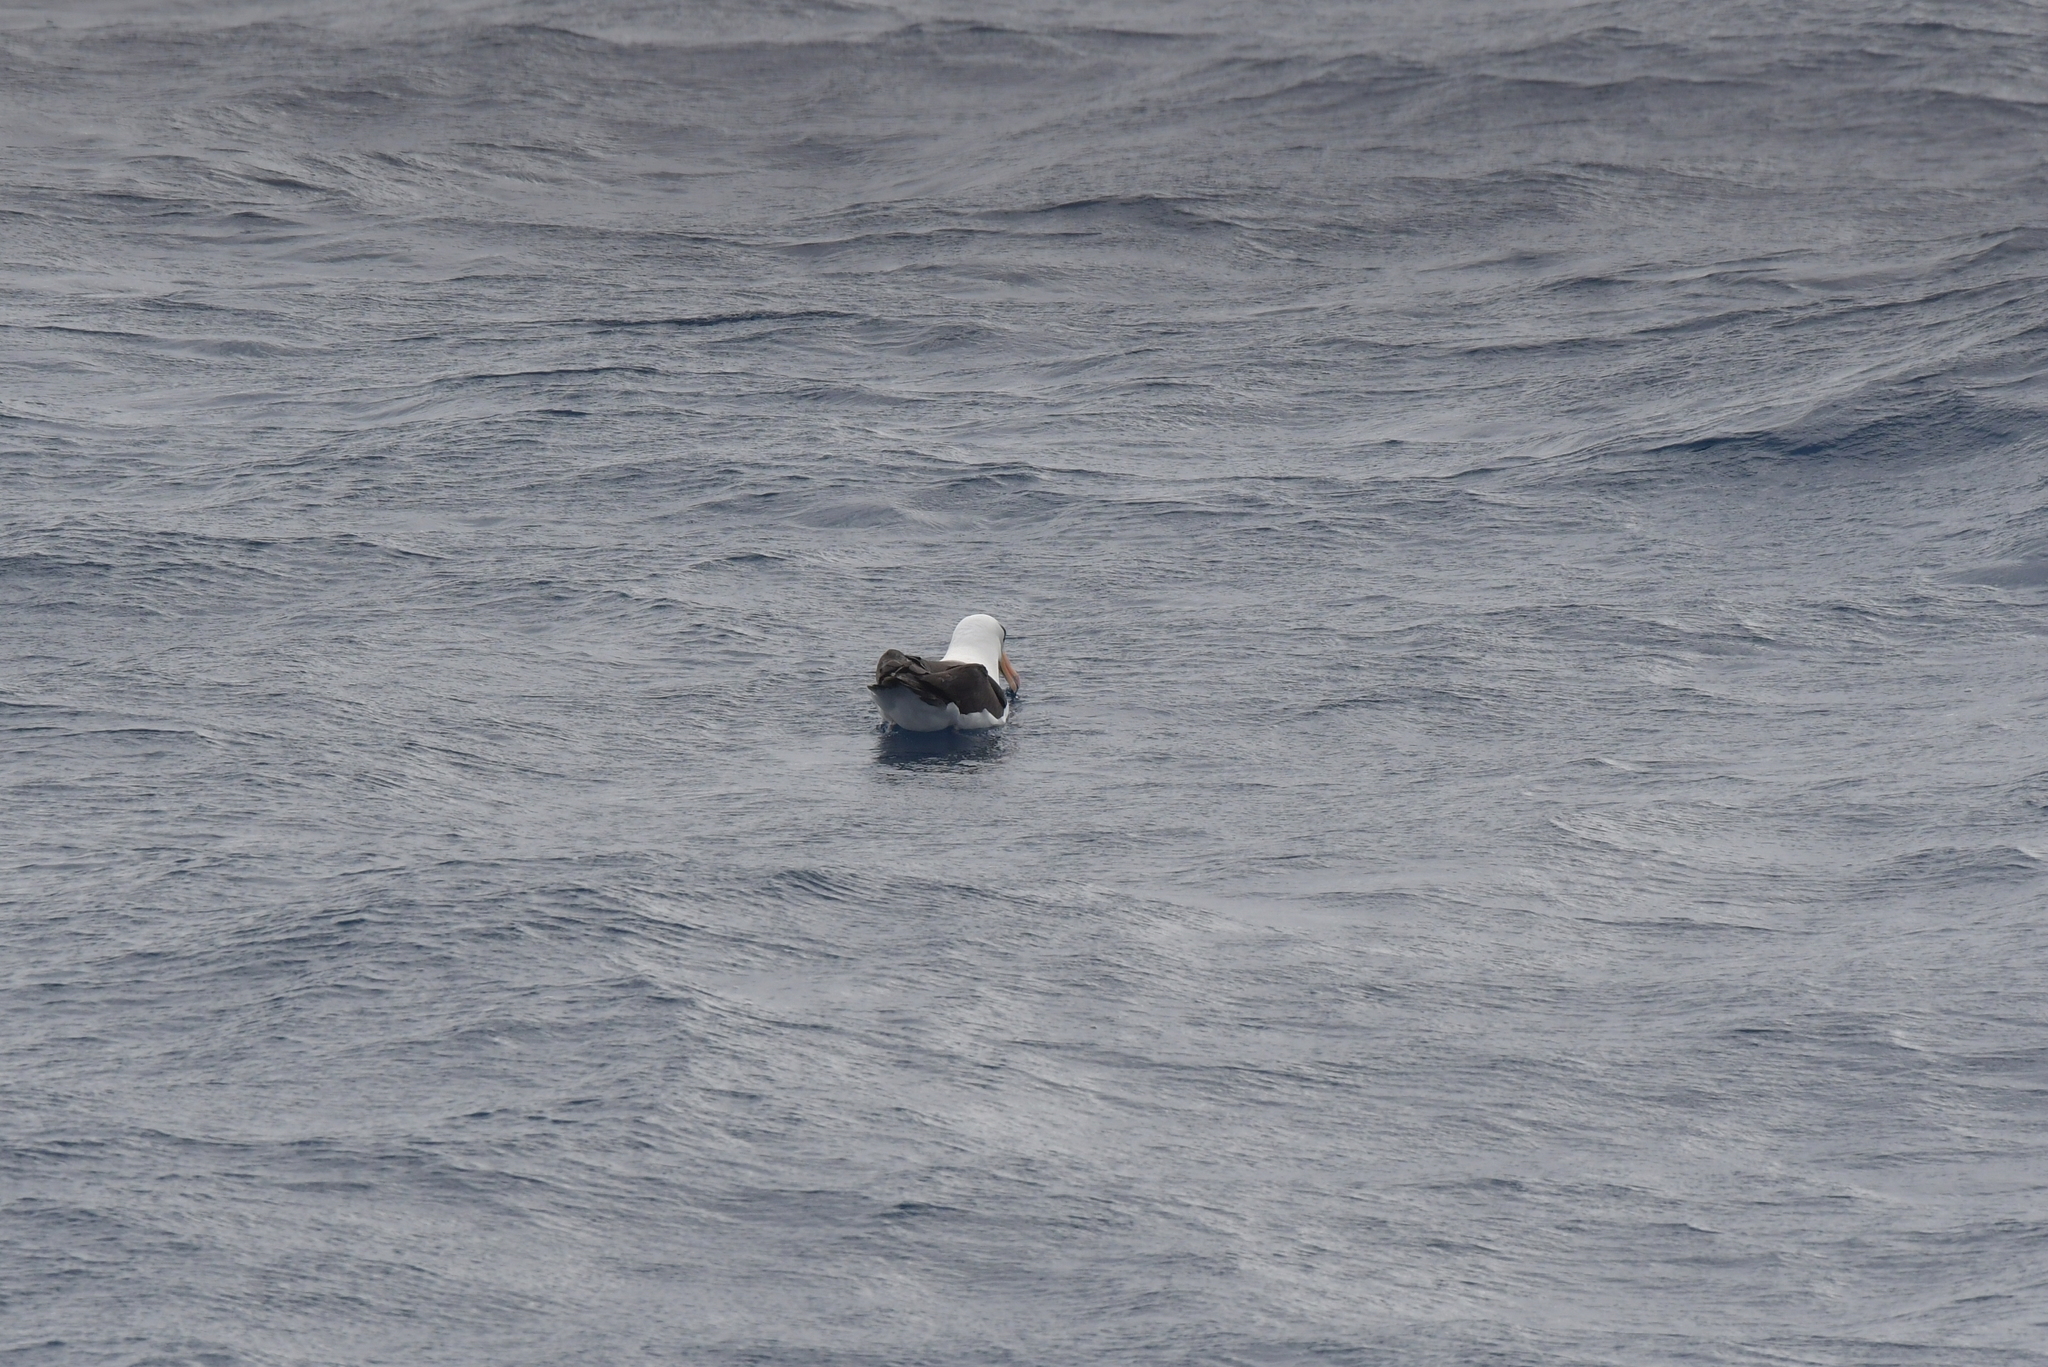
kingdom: Animalia
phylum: Chordata
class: Aves
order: Procellariiformes
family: Diomedeidae
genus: Thalassarche
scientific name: Thalassarche impavida
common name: Campbell albatross
